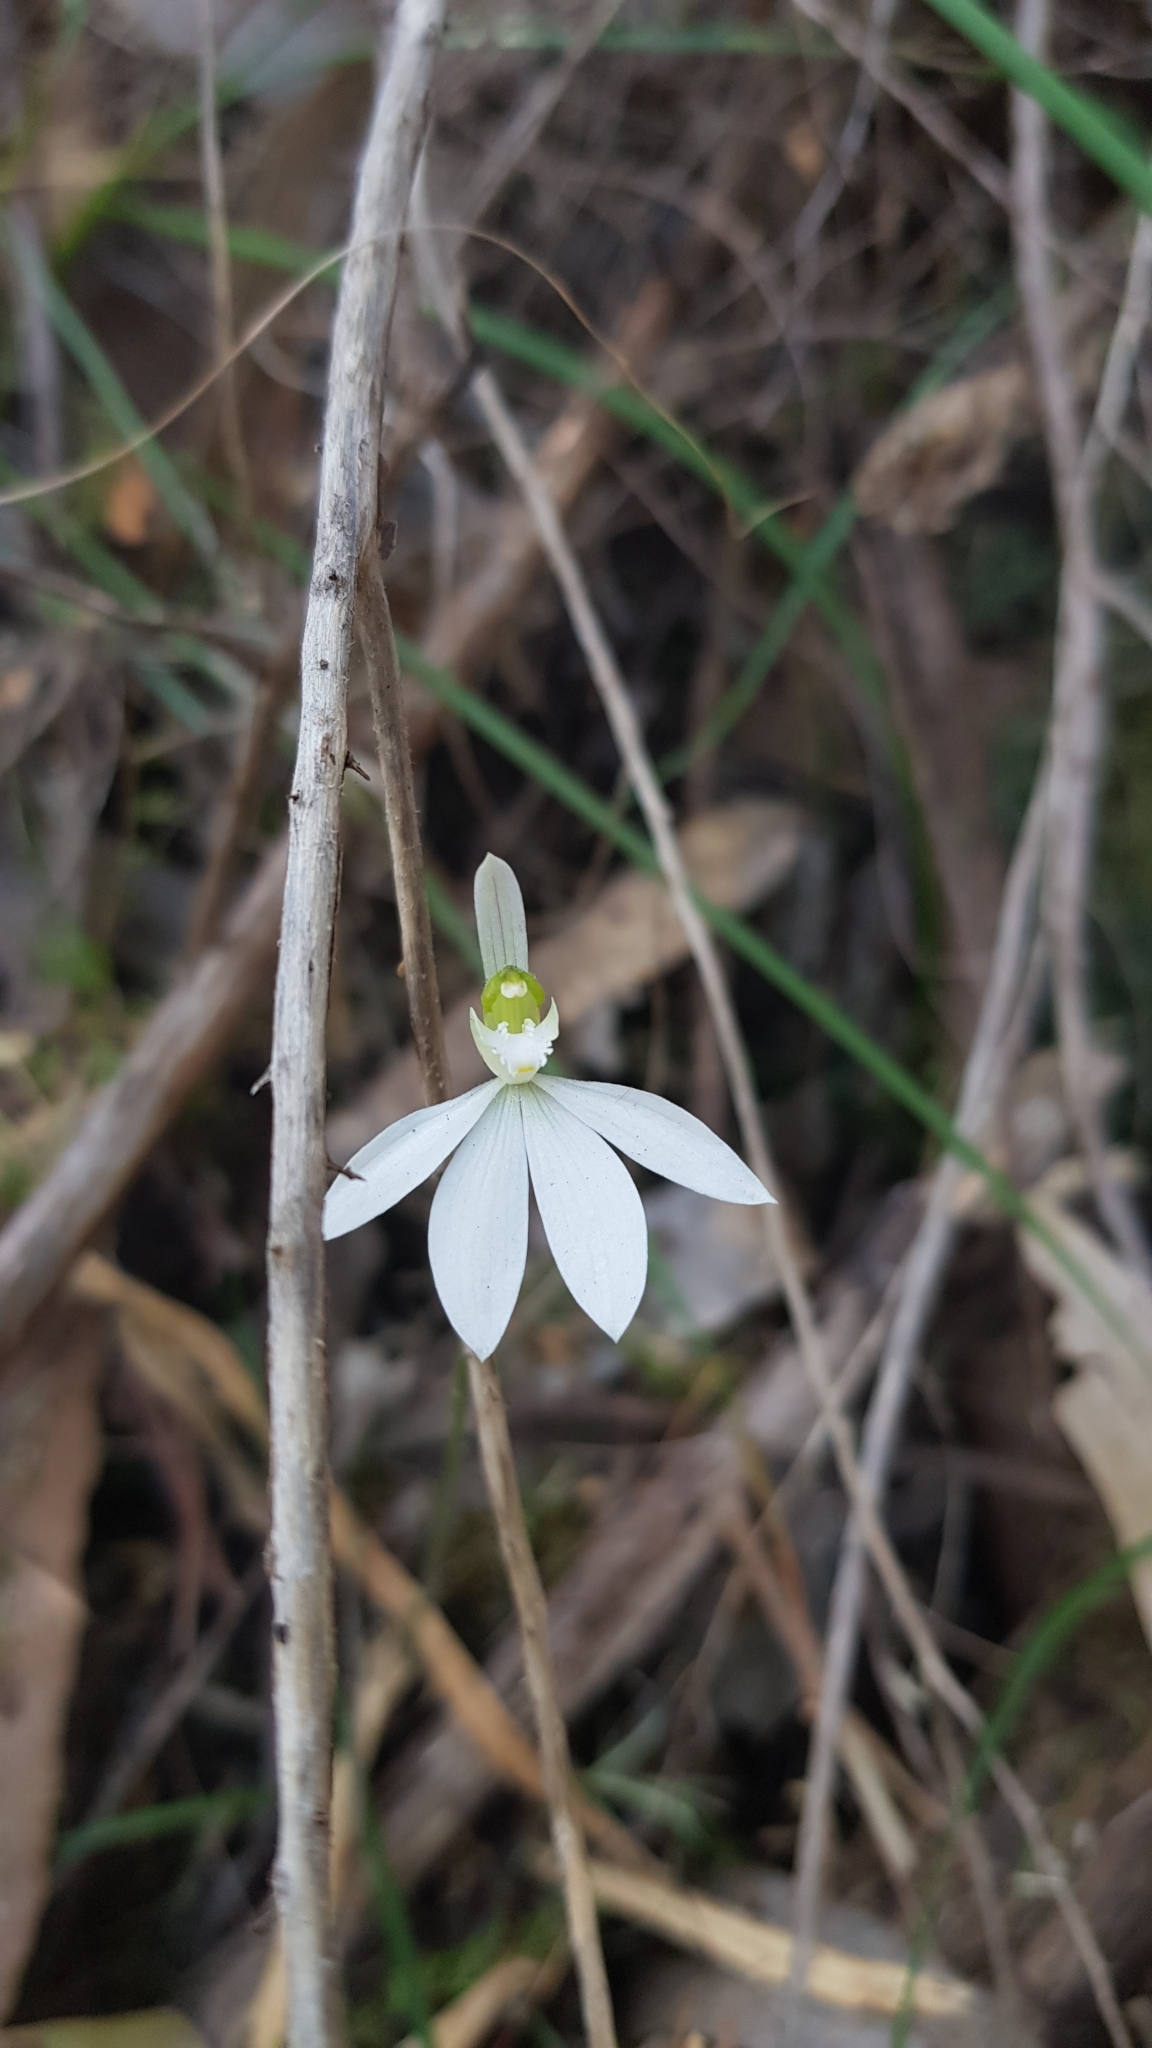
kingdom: Plantae
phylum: Tracheophyta
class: Liliopsida
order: Asparagales
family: Orchidaceae
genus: Caladenia
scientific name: Caladenia catenata
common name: White caladenia
